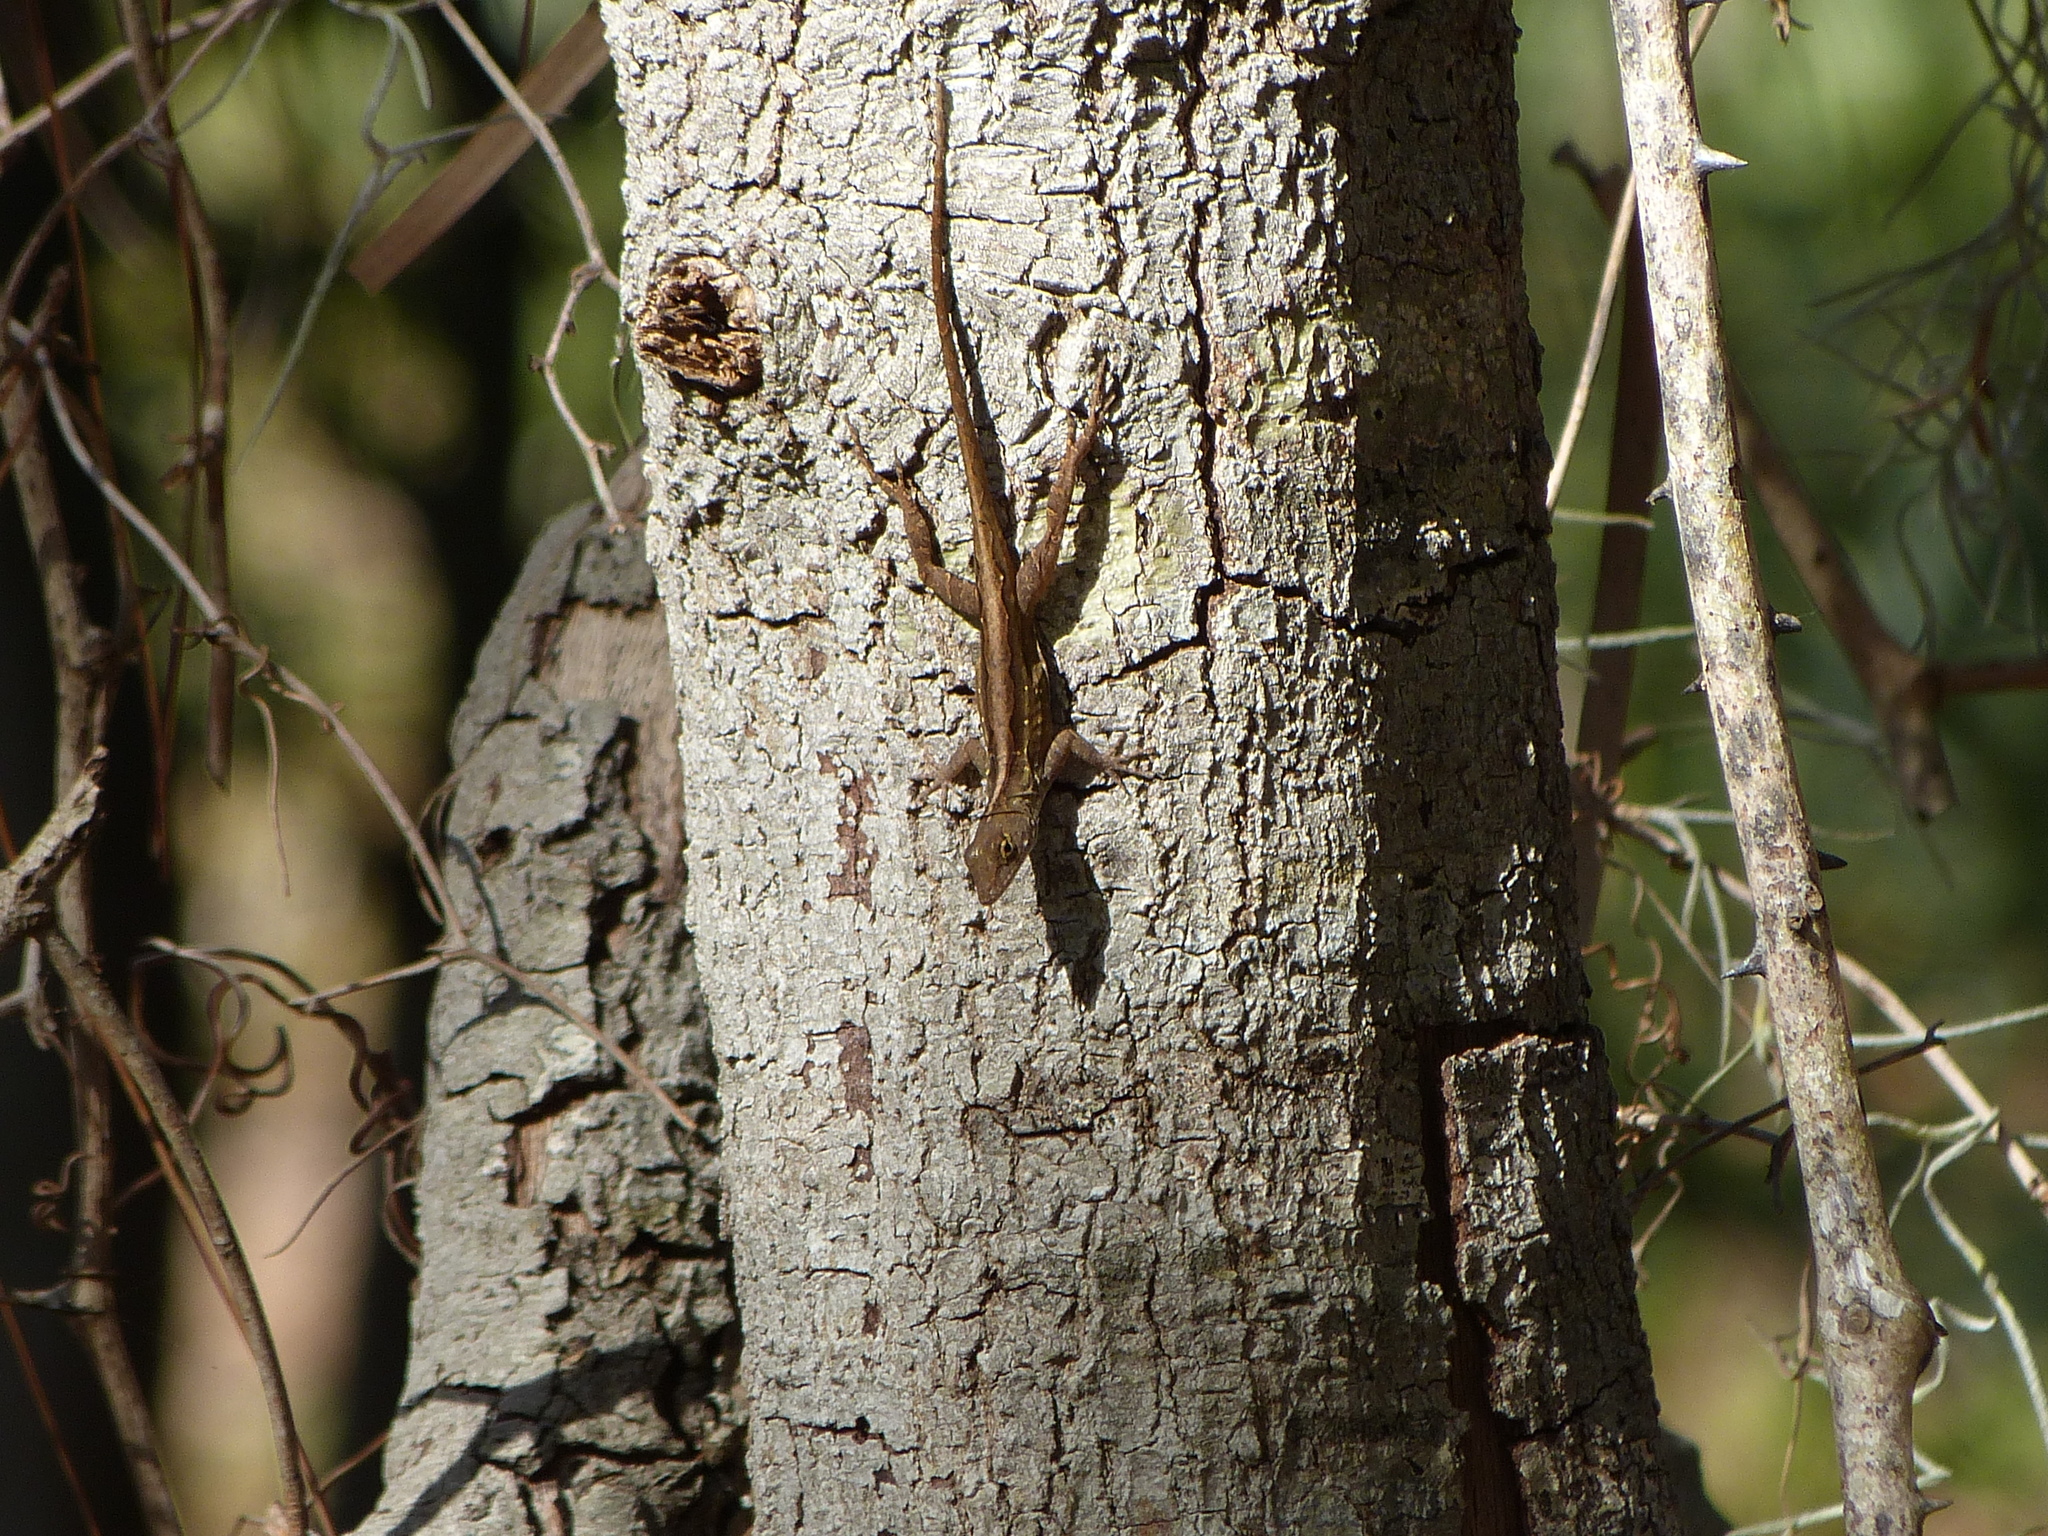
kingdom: Animalia
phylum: Chordata
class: Squamata
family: Dactyloidae
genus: Anolis
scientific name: Anolis sagrei
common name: Brown anole
